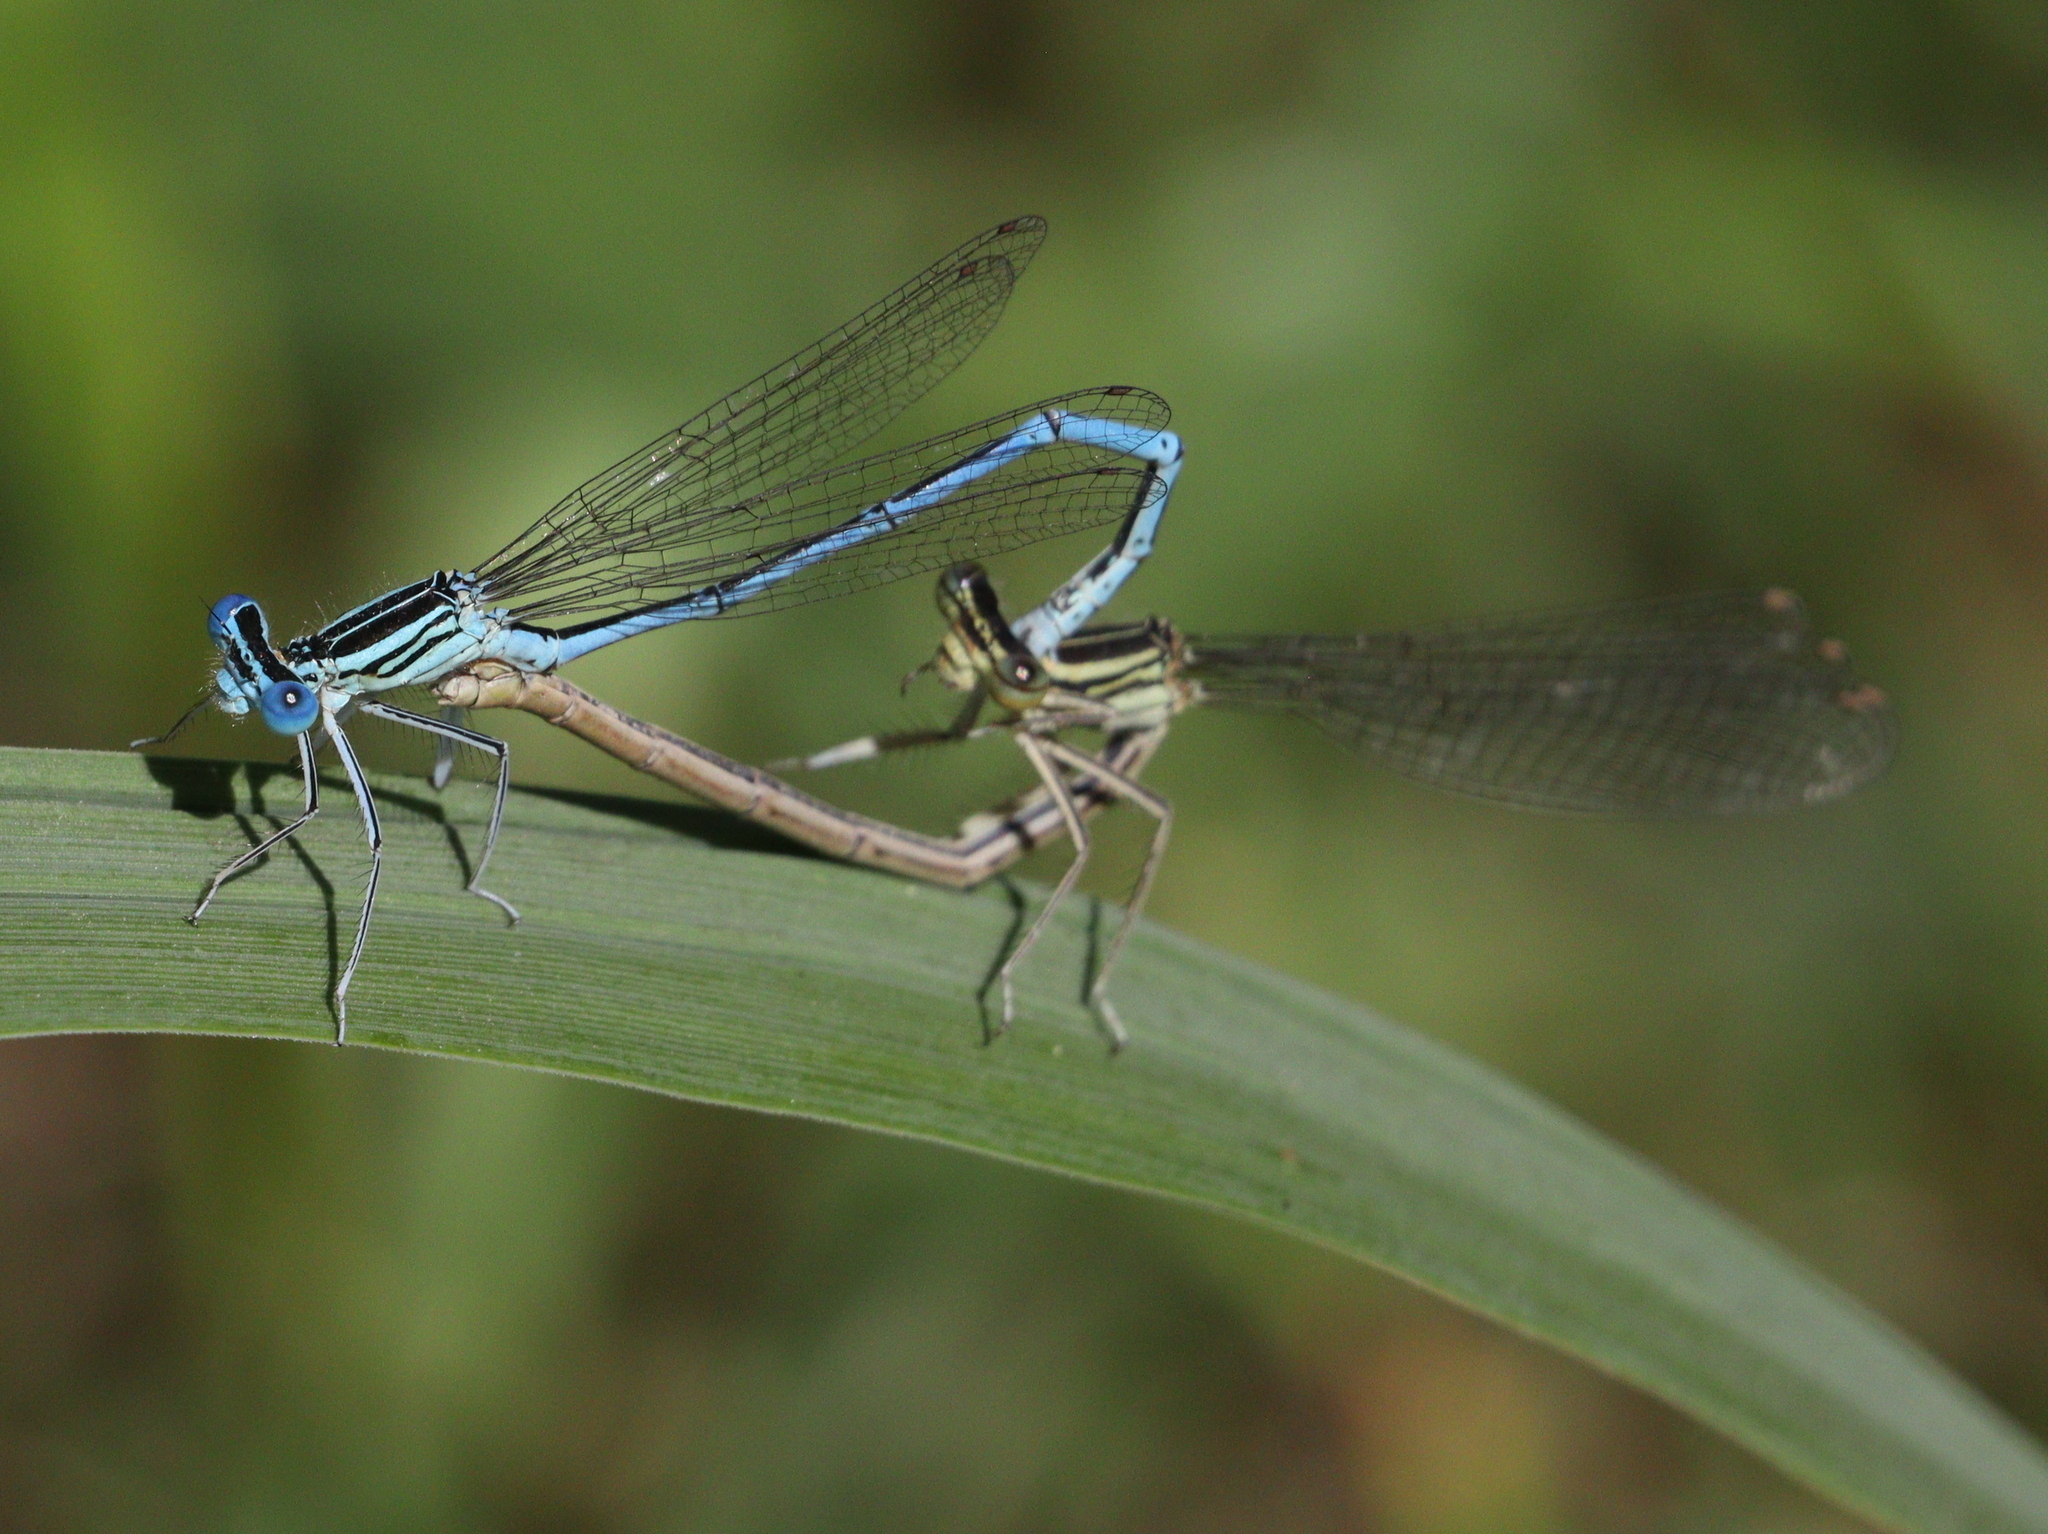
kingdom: Animalia
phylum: Arthropoda
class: Insecta
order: Odonata
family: Platycnemididae
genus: Platycnemis
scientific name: Platycnemis pennipes
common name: White-legged damselfly
